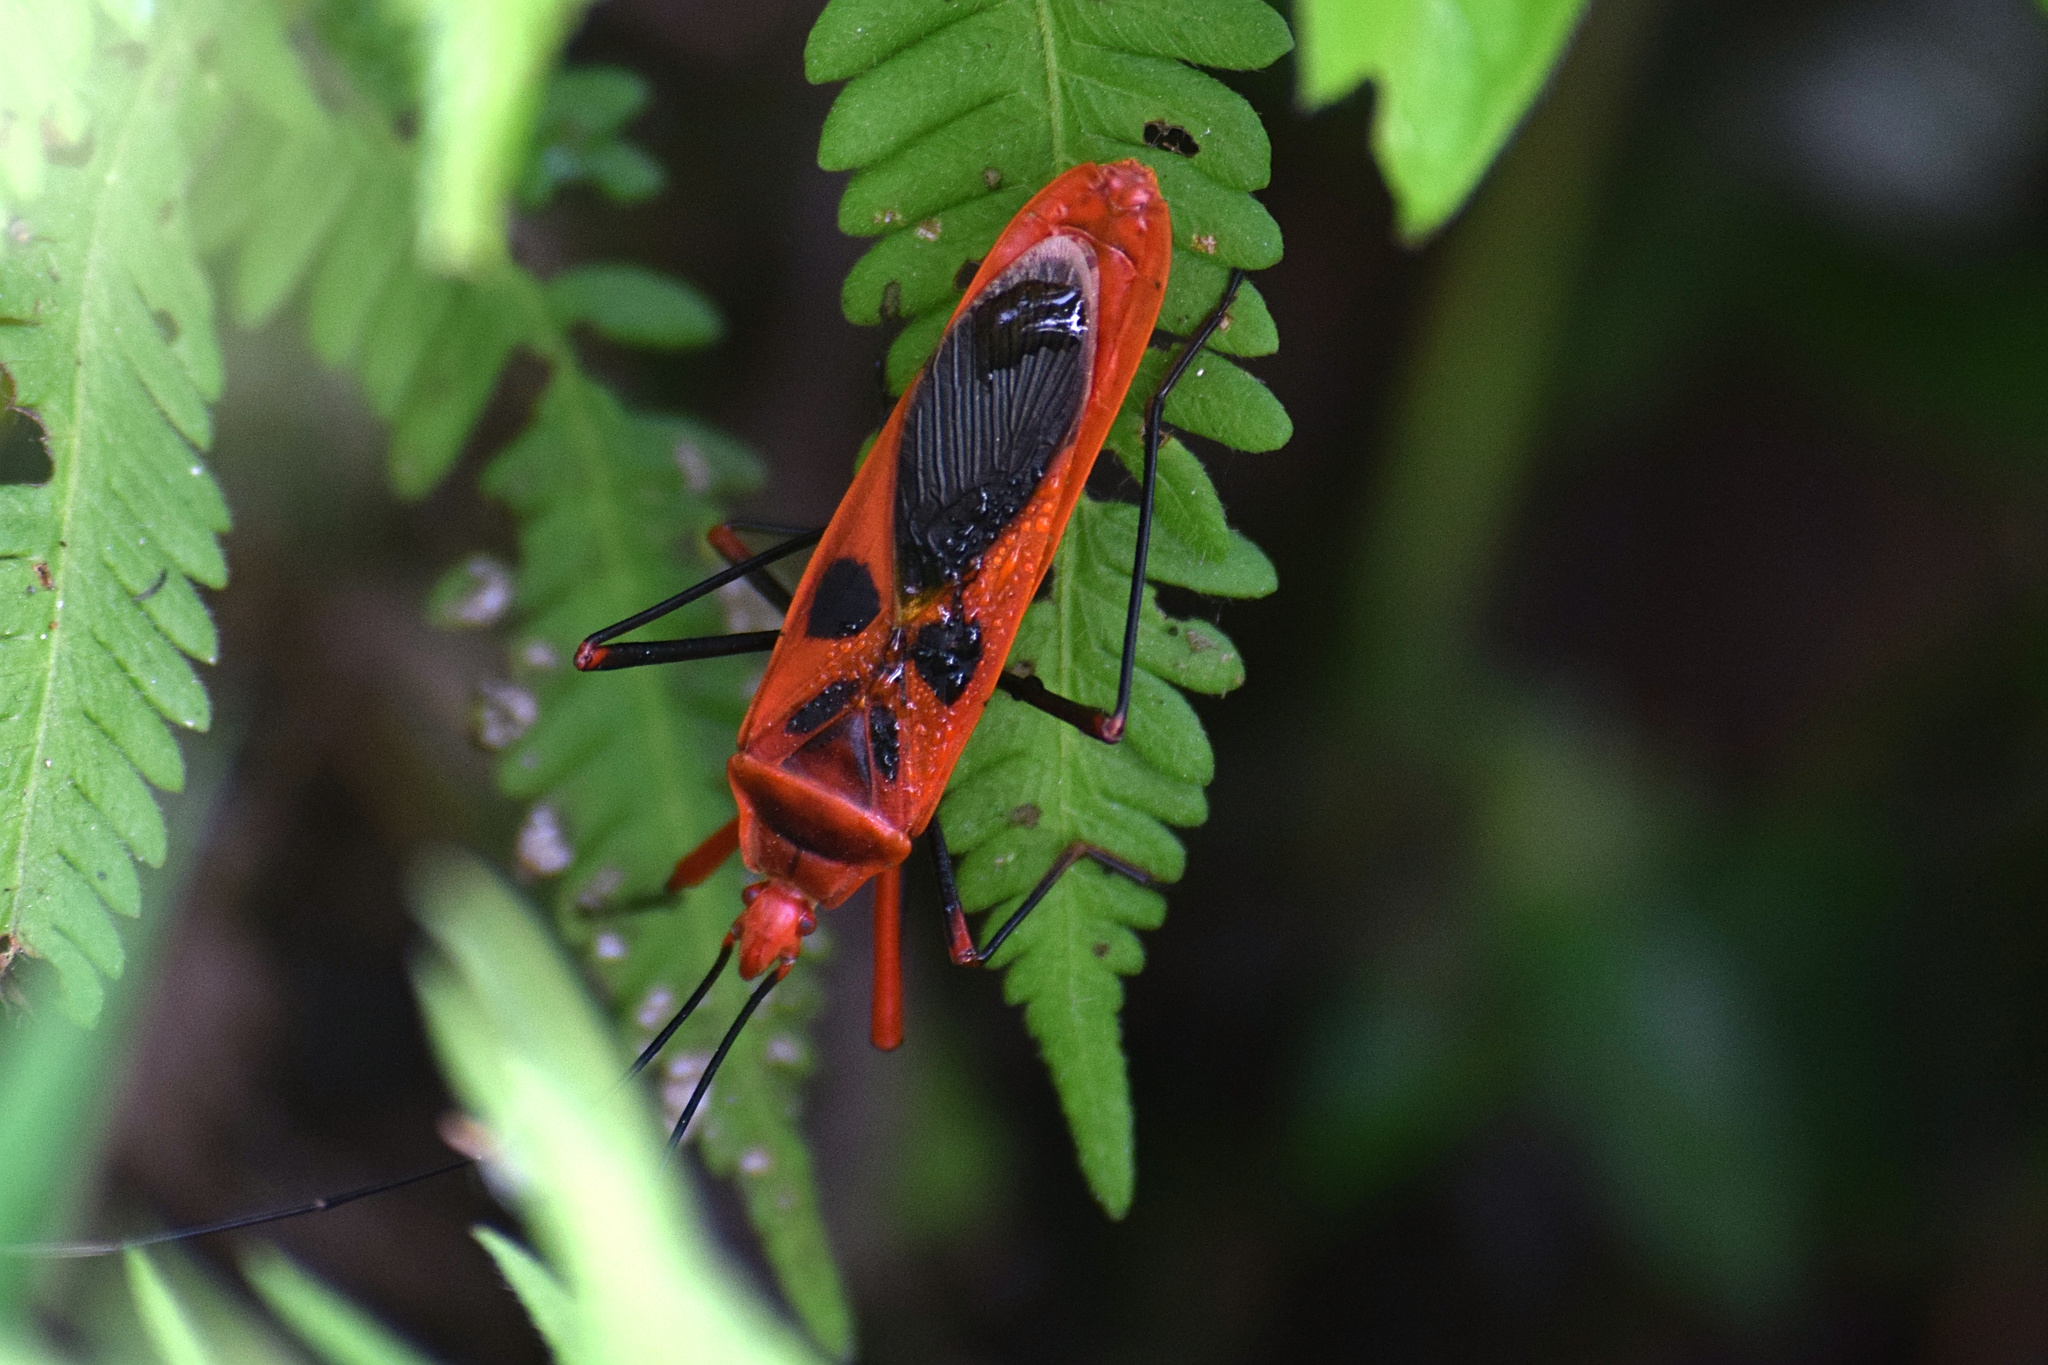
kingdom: Animalia
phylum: Arthropoda
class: Insecta
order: Hemiptera
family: Largidae
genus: Macrocheraia
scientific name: Macrocheraia grandis
